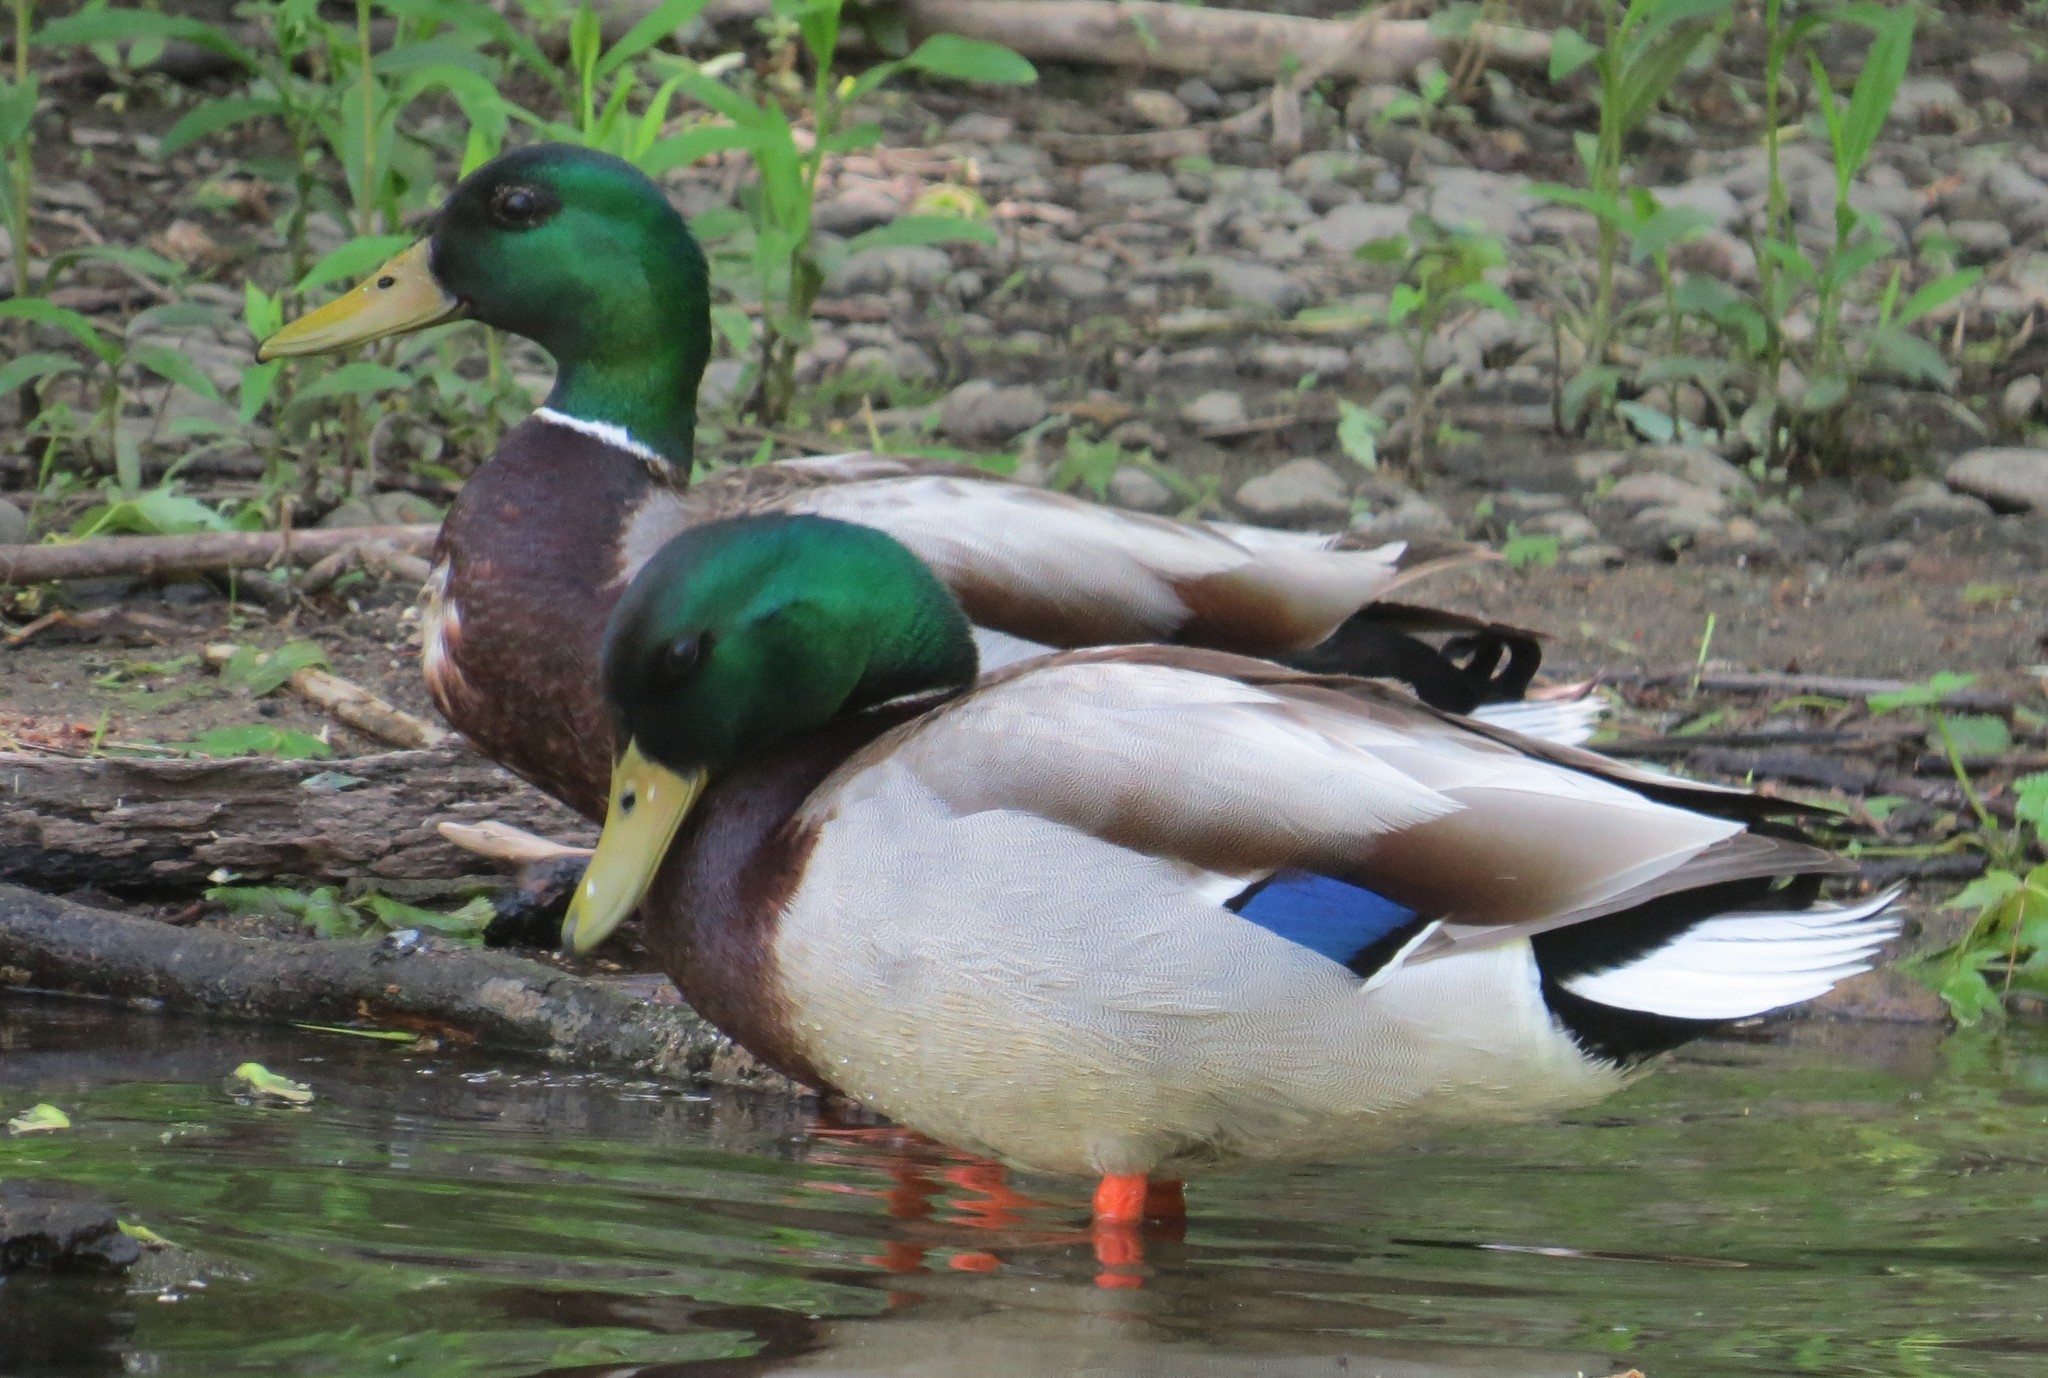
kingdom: Animalia
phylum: Chordata
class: Aves
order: Anseriformes
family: Anatidae
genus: Anas
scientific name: Anas platyrhynchos
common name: Mallard
